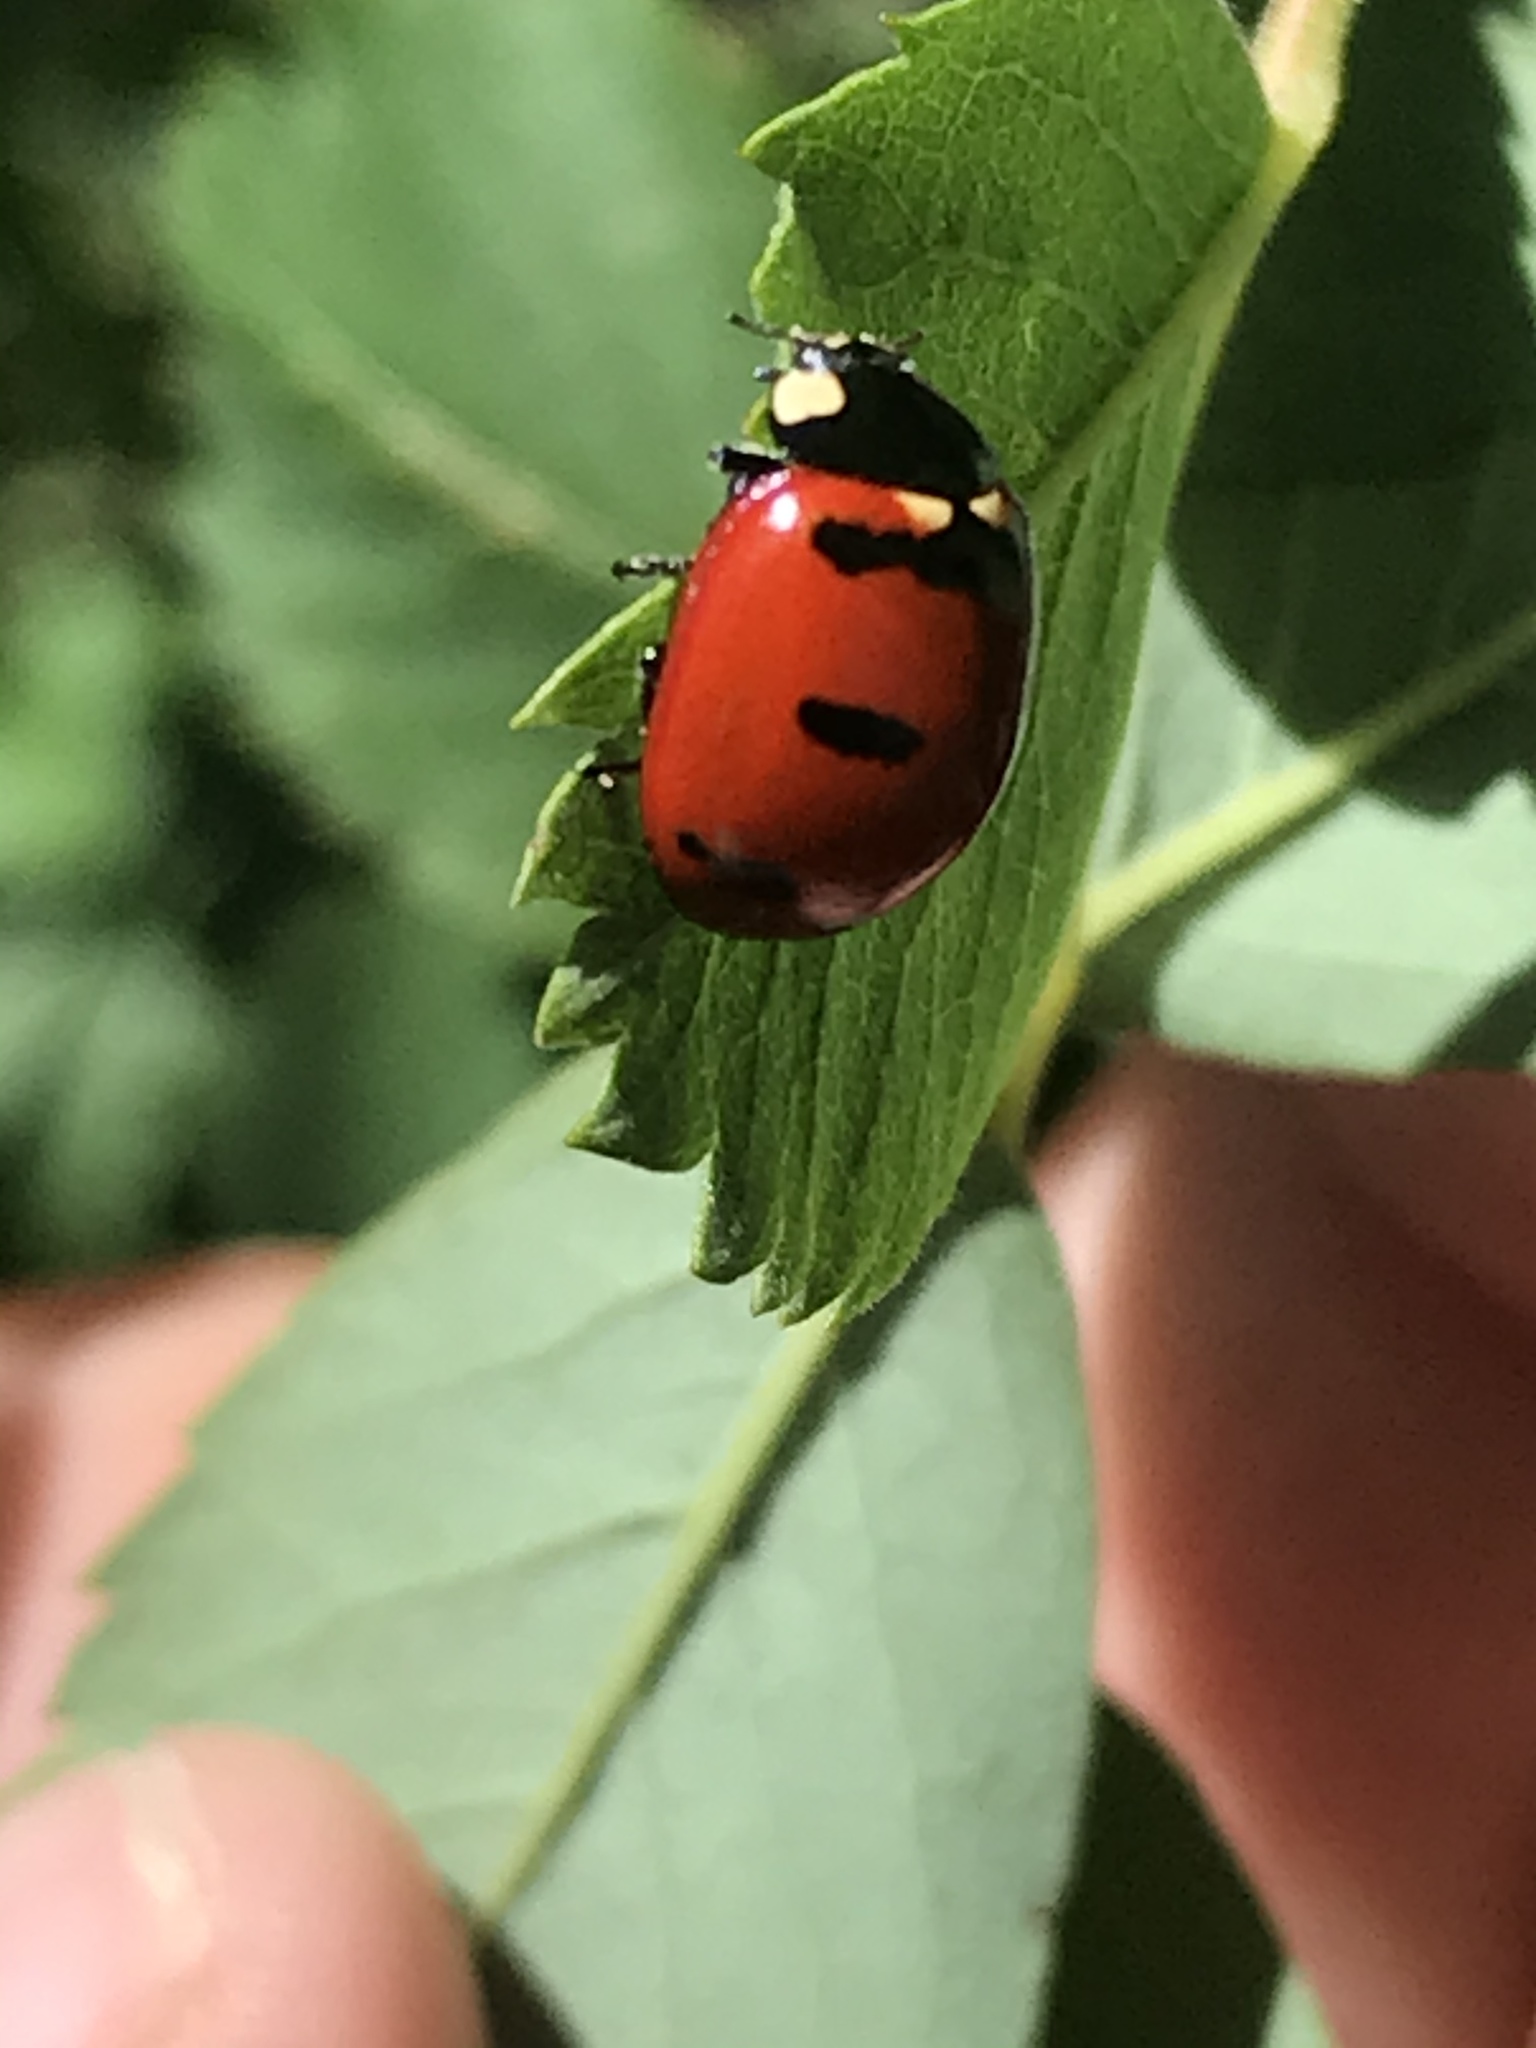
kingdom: Animalia
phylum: Arthropoda
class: Insecta
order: Coleoptera
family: Coccinellidae
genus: Coccinella
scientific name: Coccinella transversoguttata
